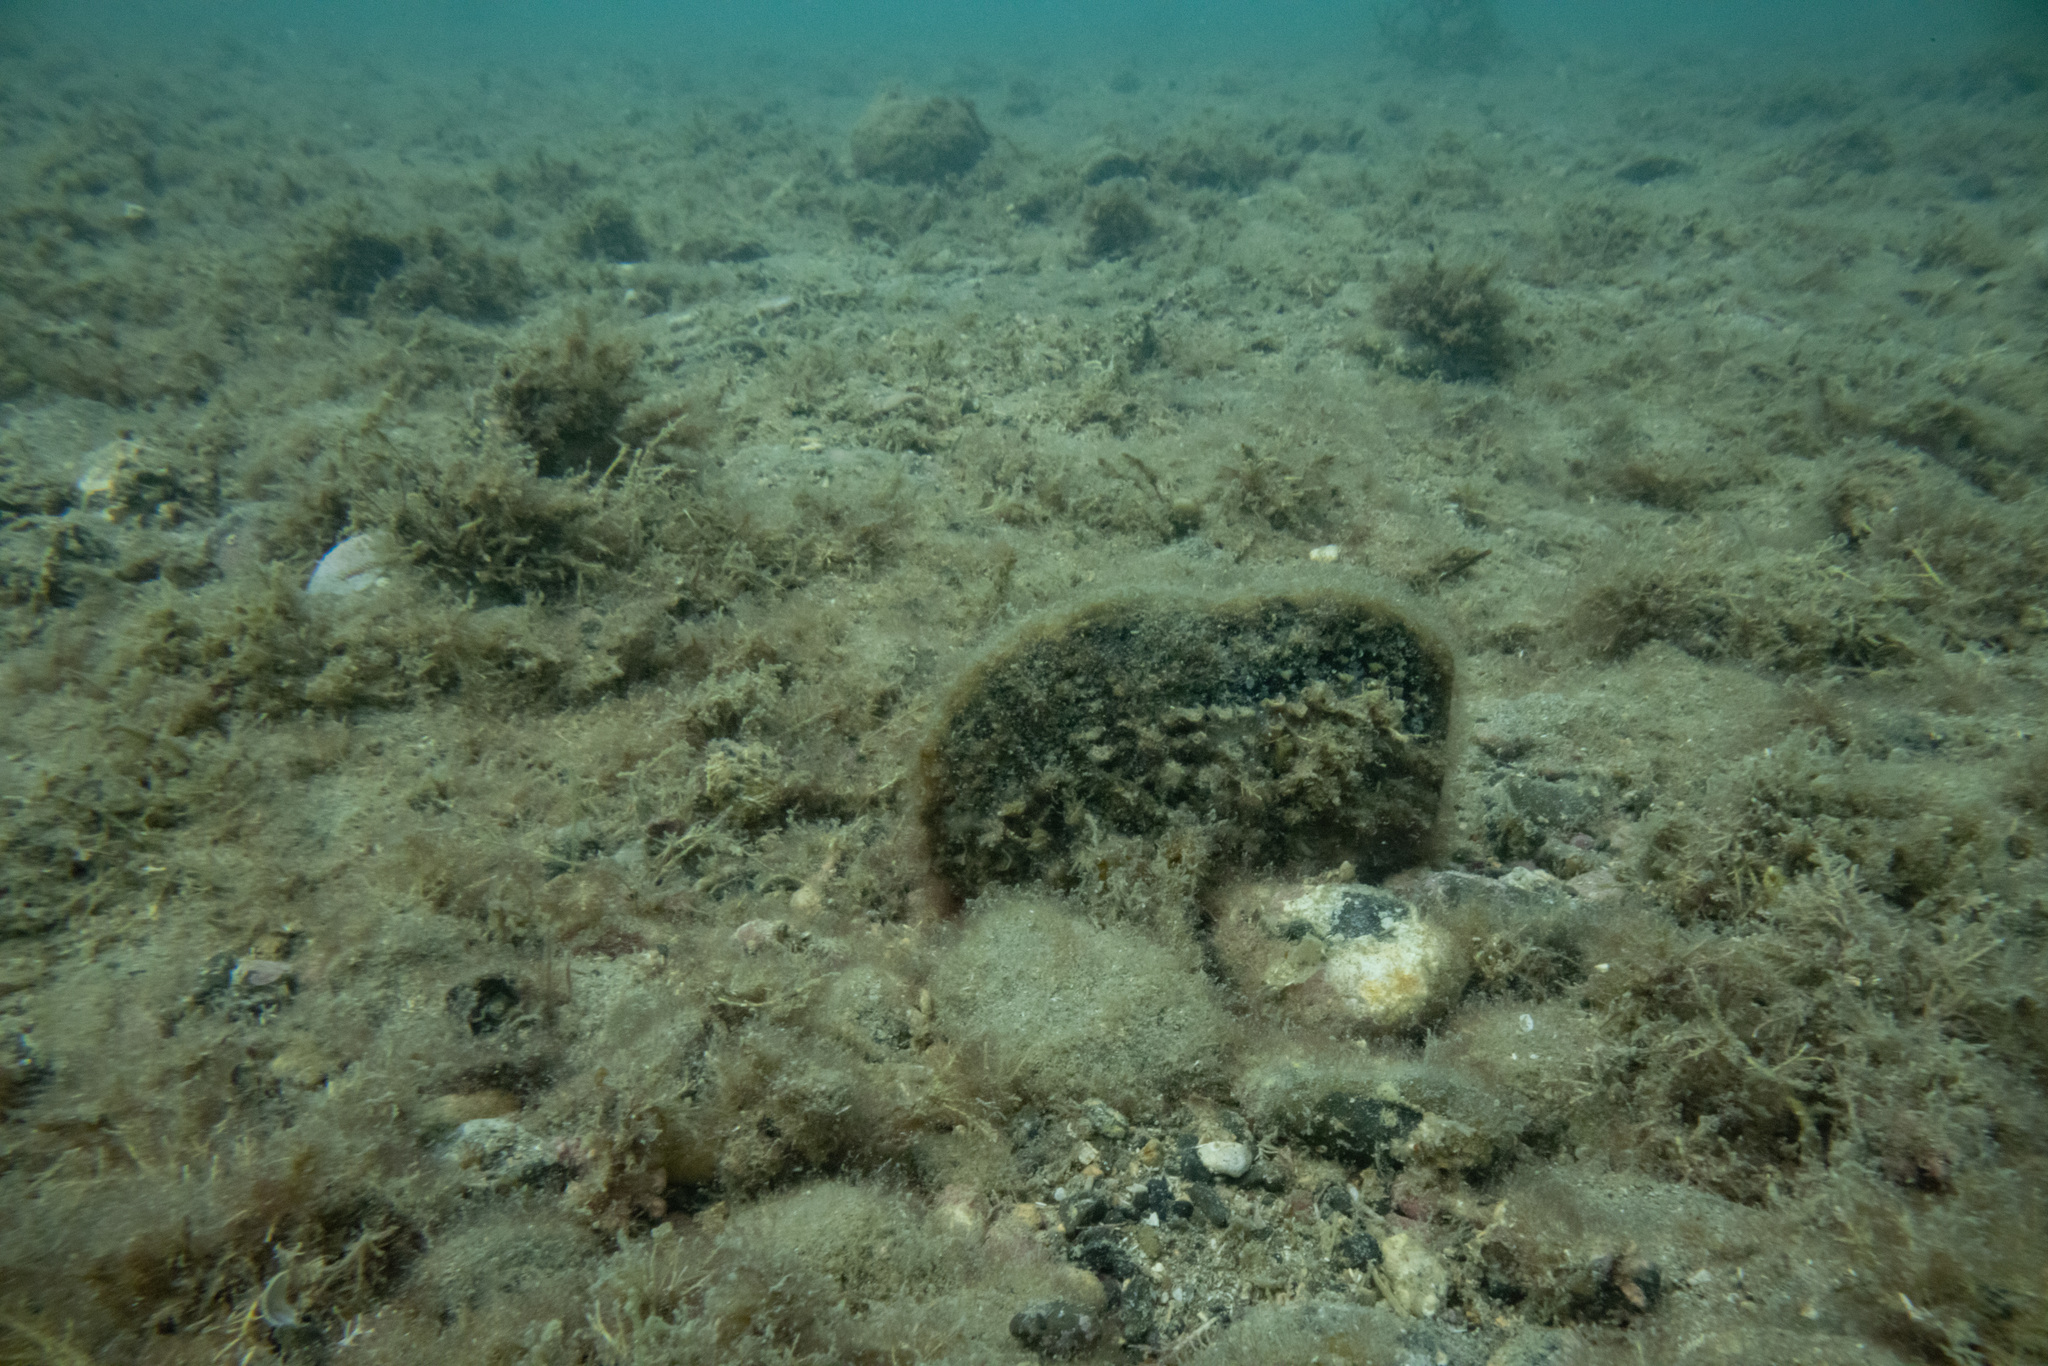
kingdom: Animalia
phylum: Mollusca
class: Bivalvia
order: Ostreida
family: Pinnidae
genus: Atrina
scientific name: Atrina zelandica
